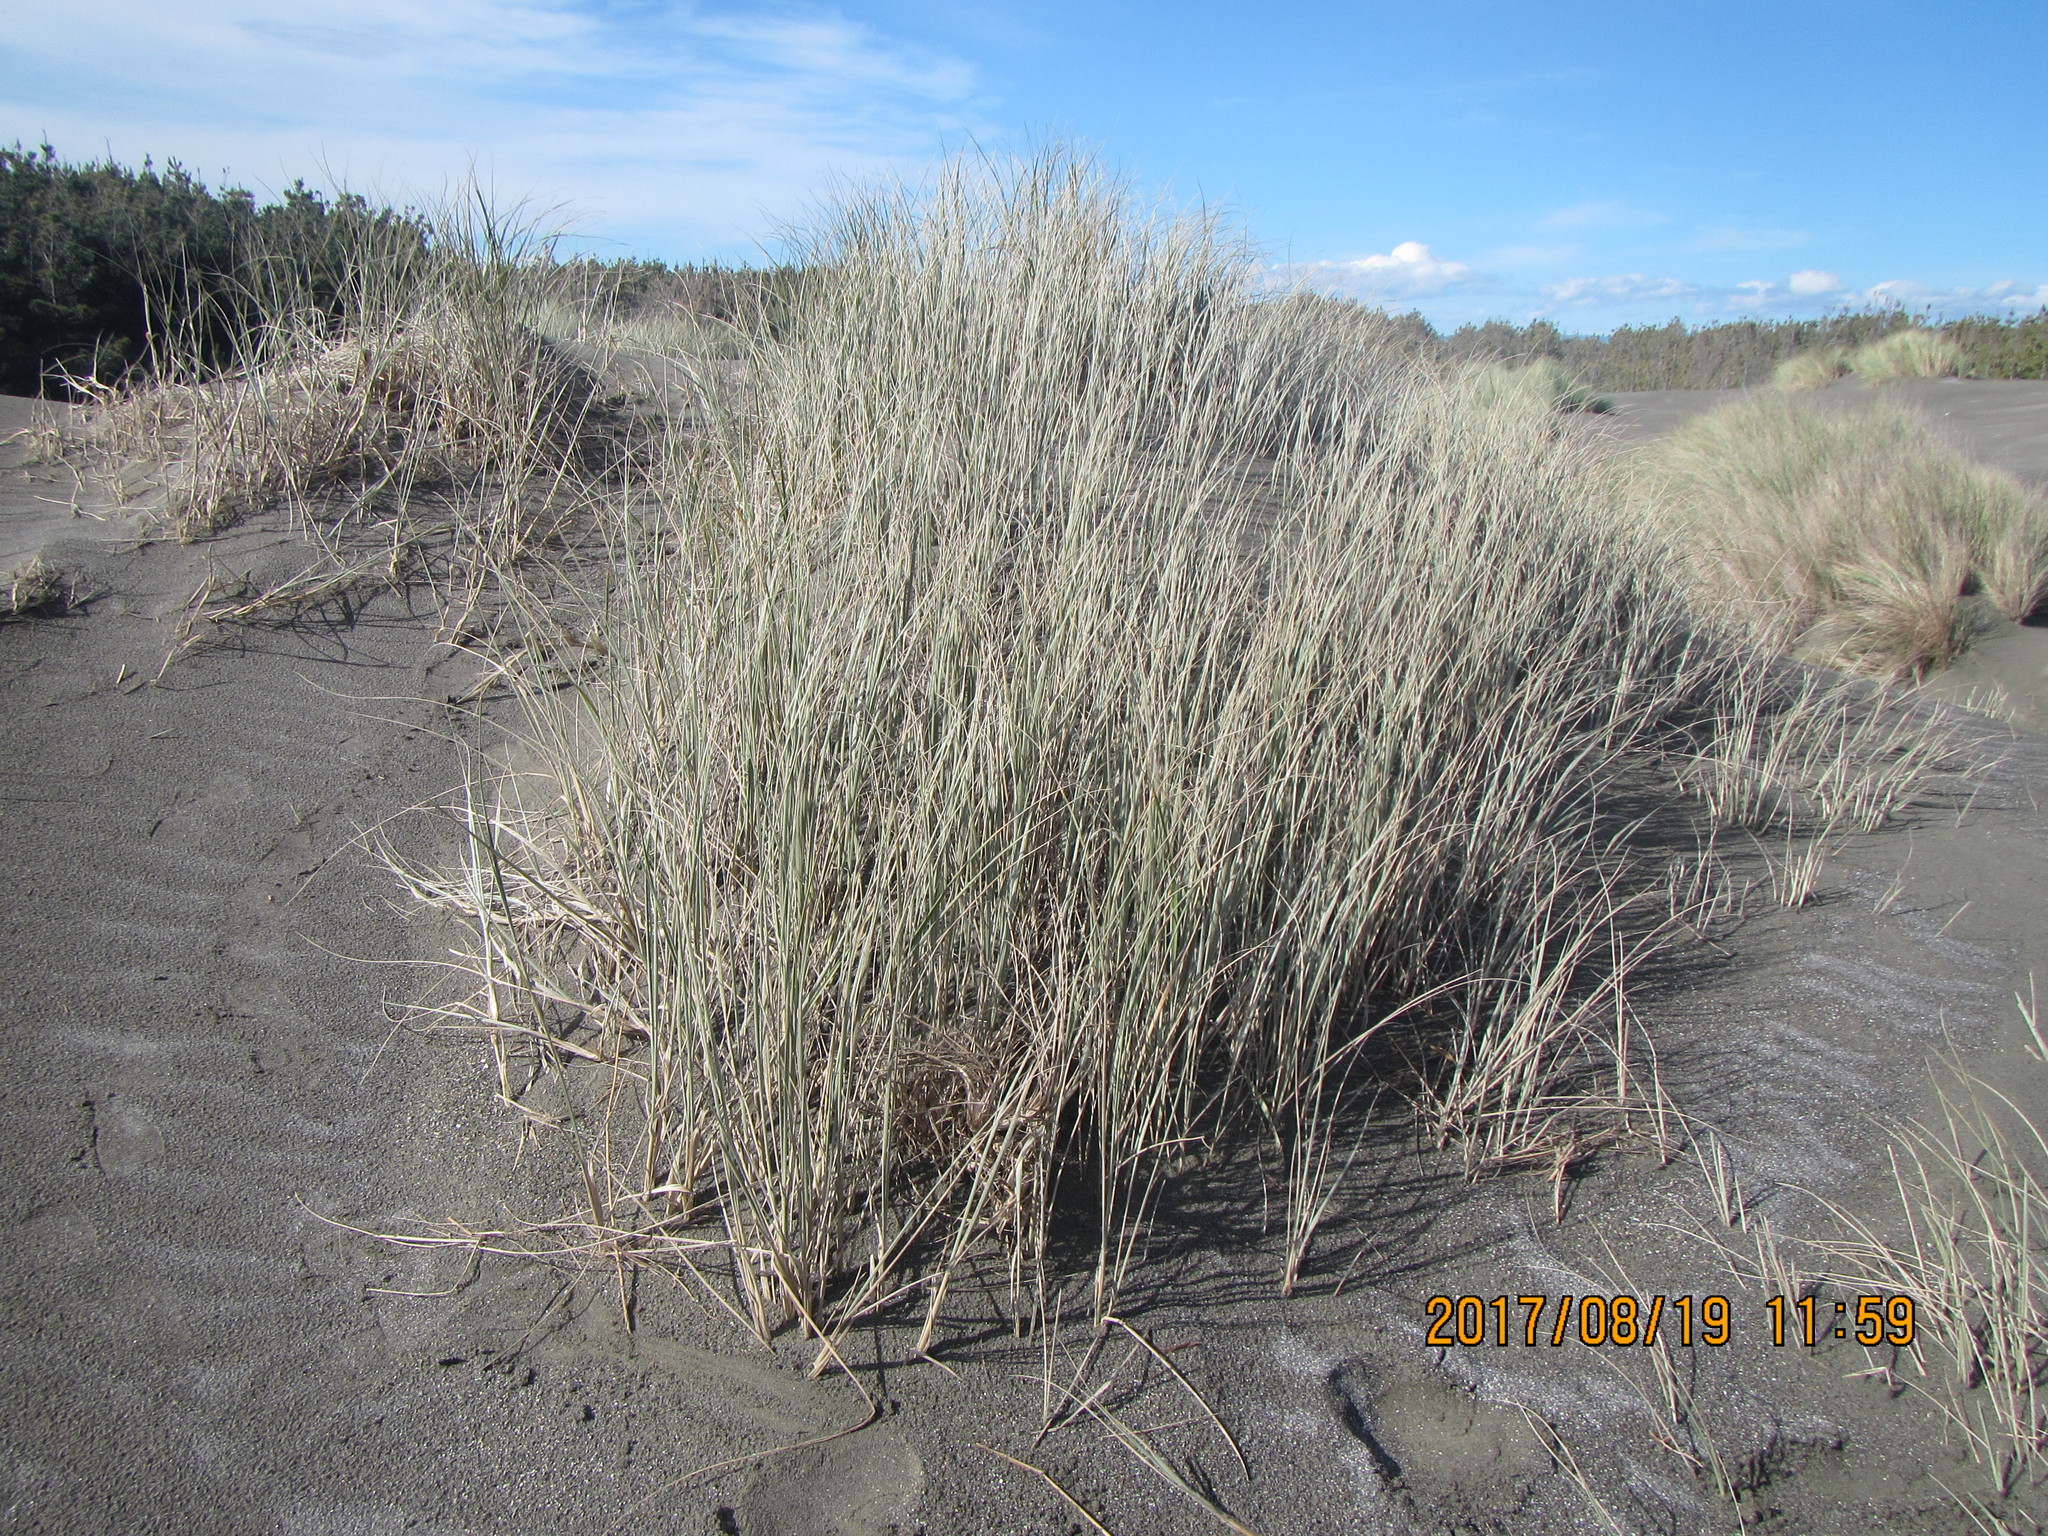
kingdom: Plantae
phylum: Tracheophyta
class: Liliopsida
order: Poales
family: Poaceae
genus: Spinifex
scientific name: Spinifex sericeus
